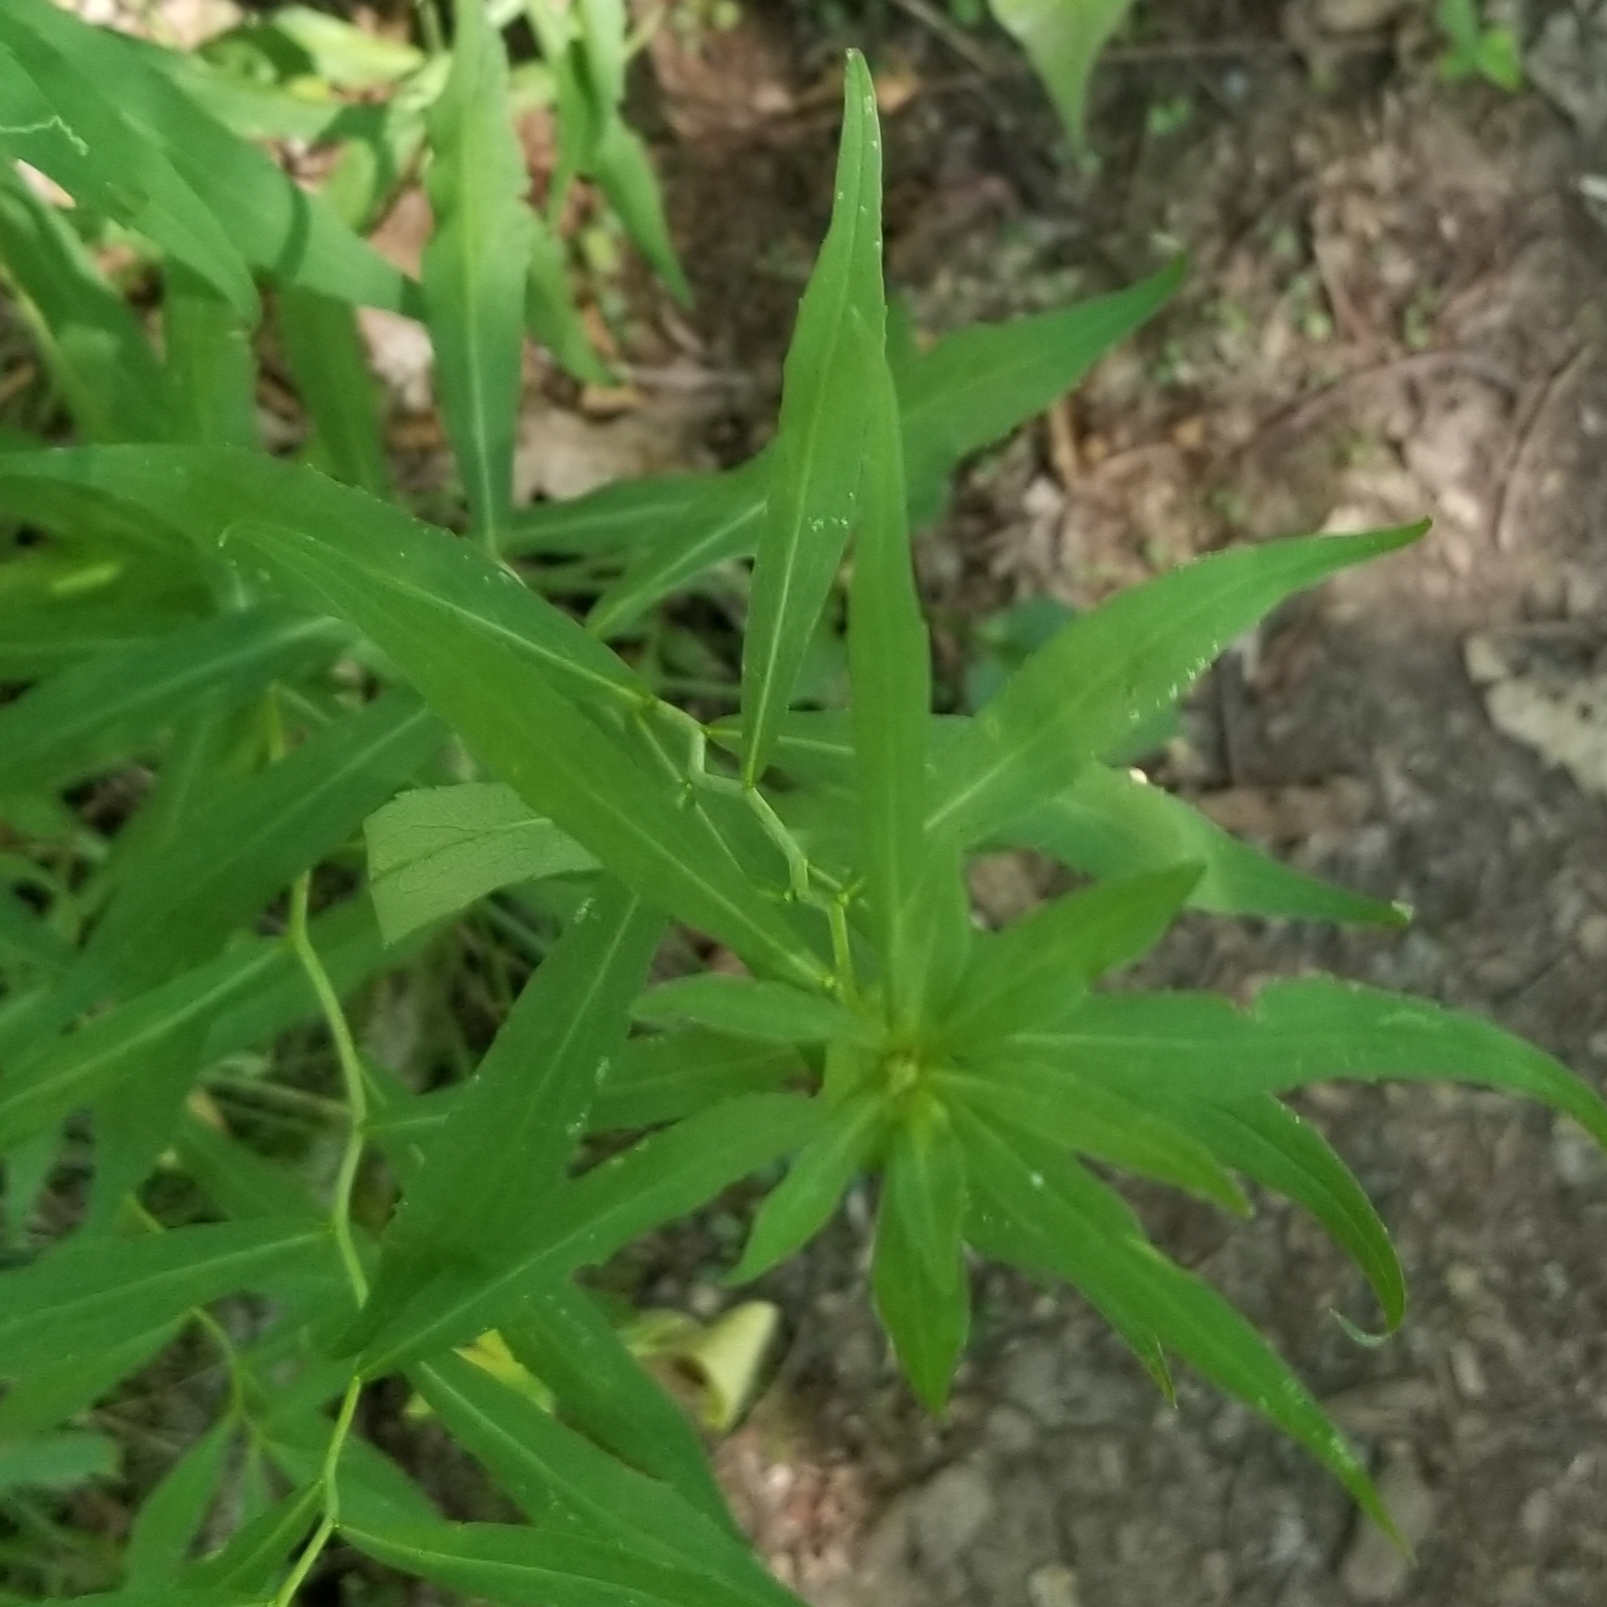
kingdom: Plantae
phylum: Tracheophyta
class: Magnoliopsida
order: Asterales
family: Asteraceae
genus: Solidago
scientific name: Solidago caesia
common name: Woodland goldenrod
